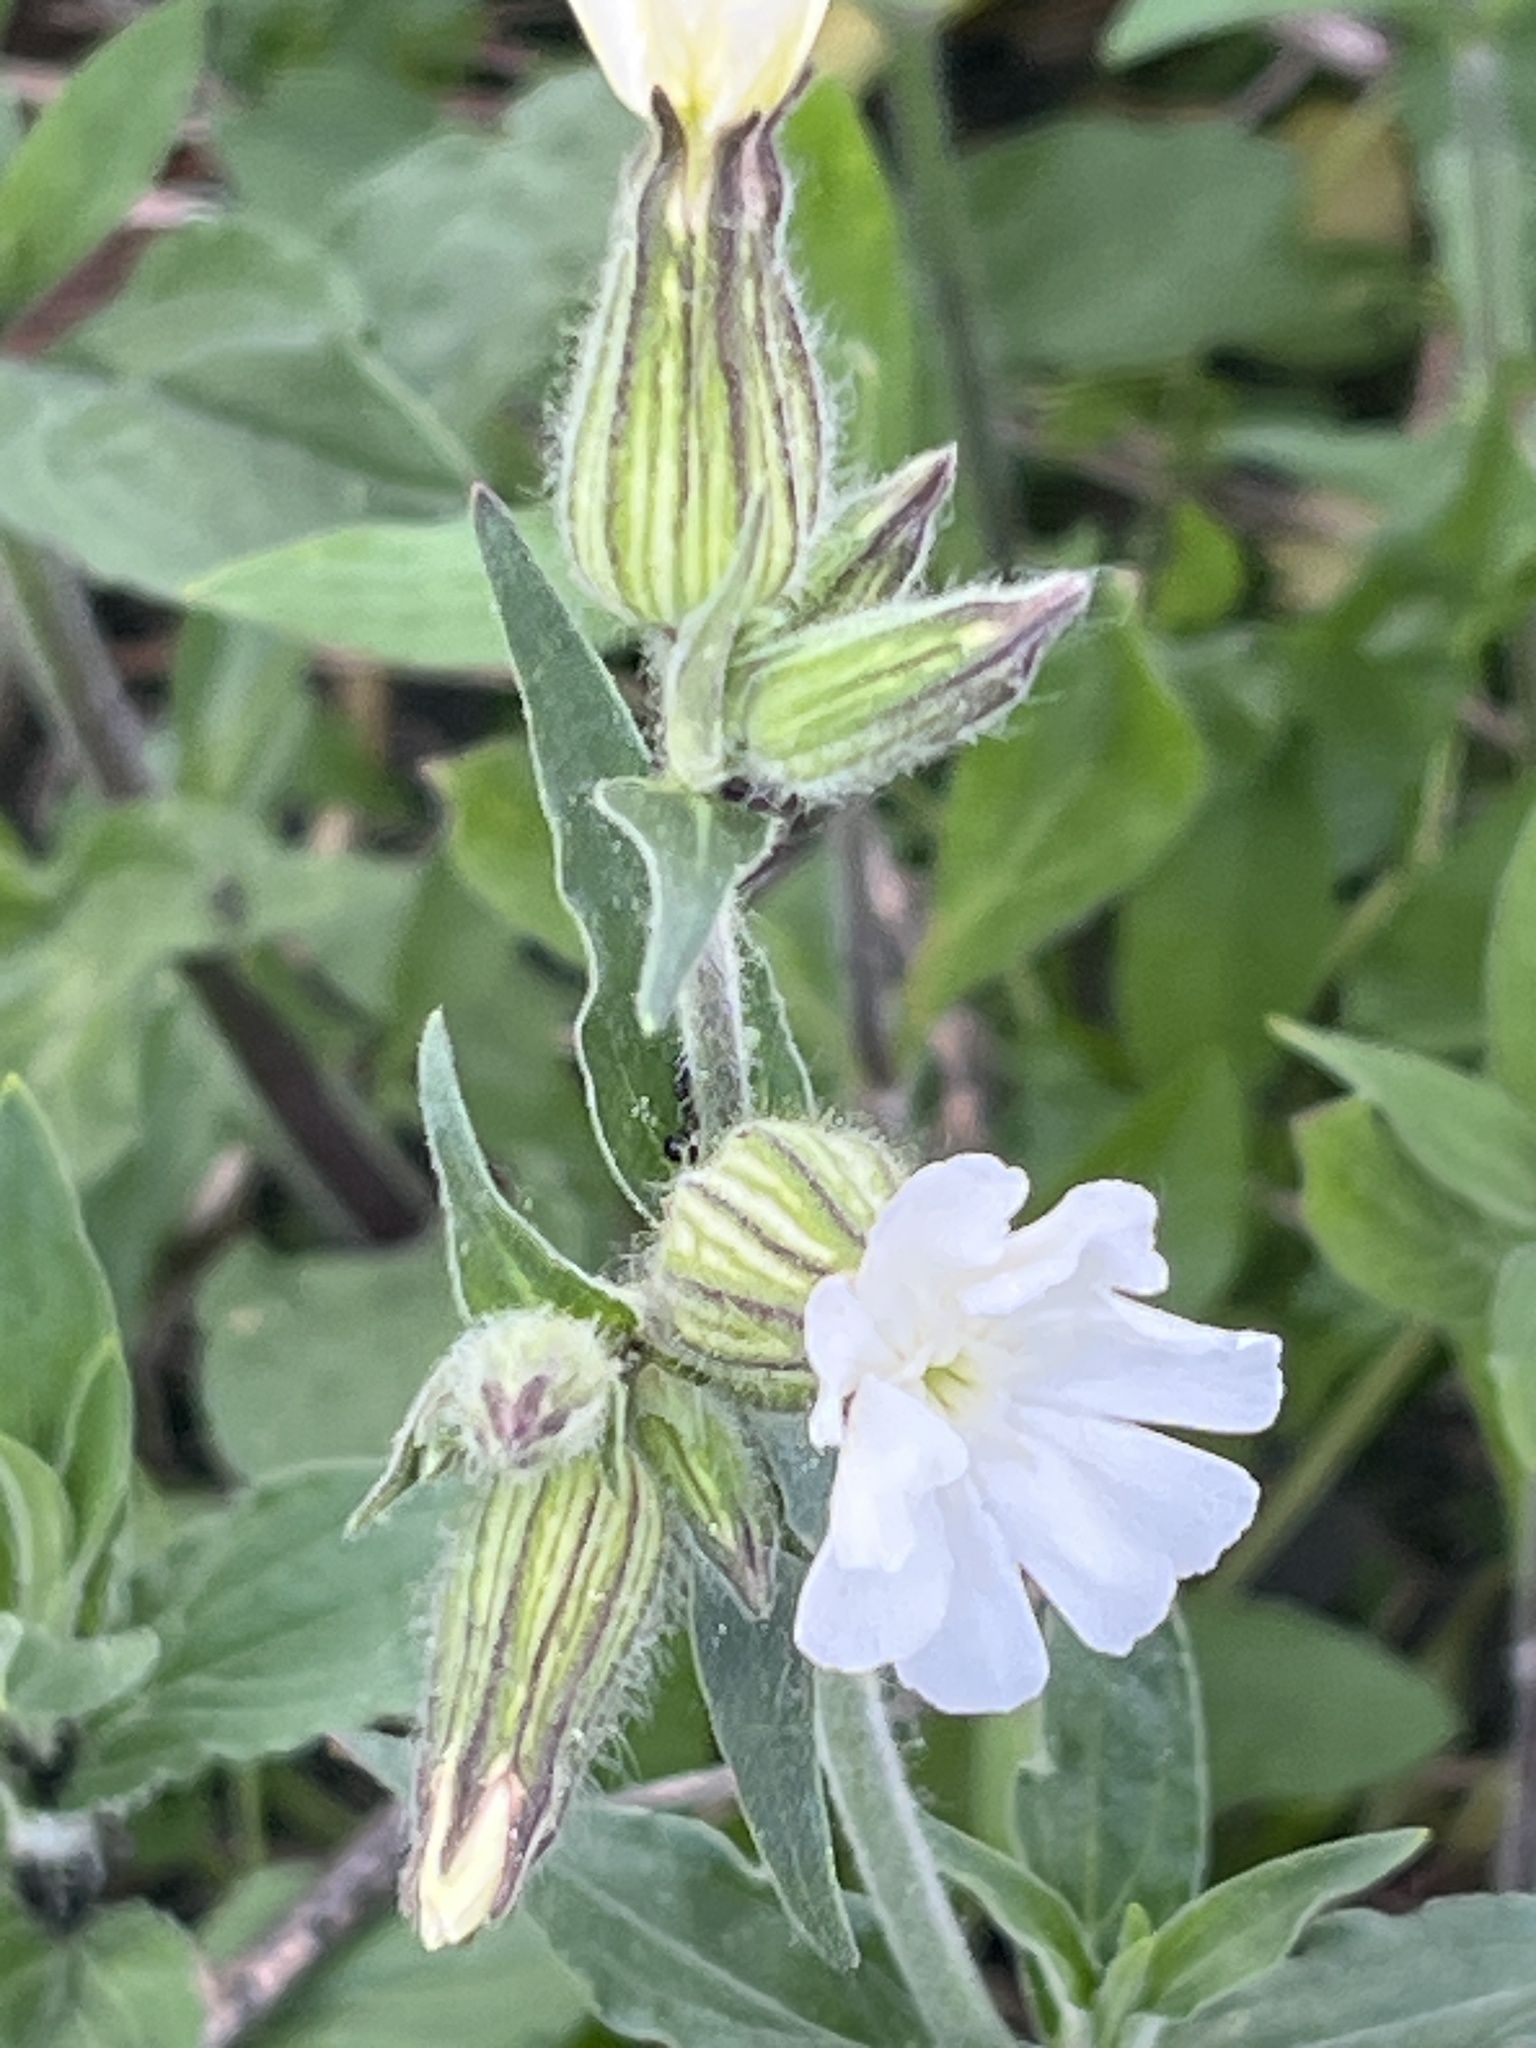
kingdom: Plantae
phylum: Tracheophyta
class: Magnoliopsida
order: Caryophyllales
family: Caryophyllaceae
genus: Silene
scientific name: Silene latifolia
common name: White campion
